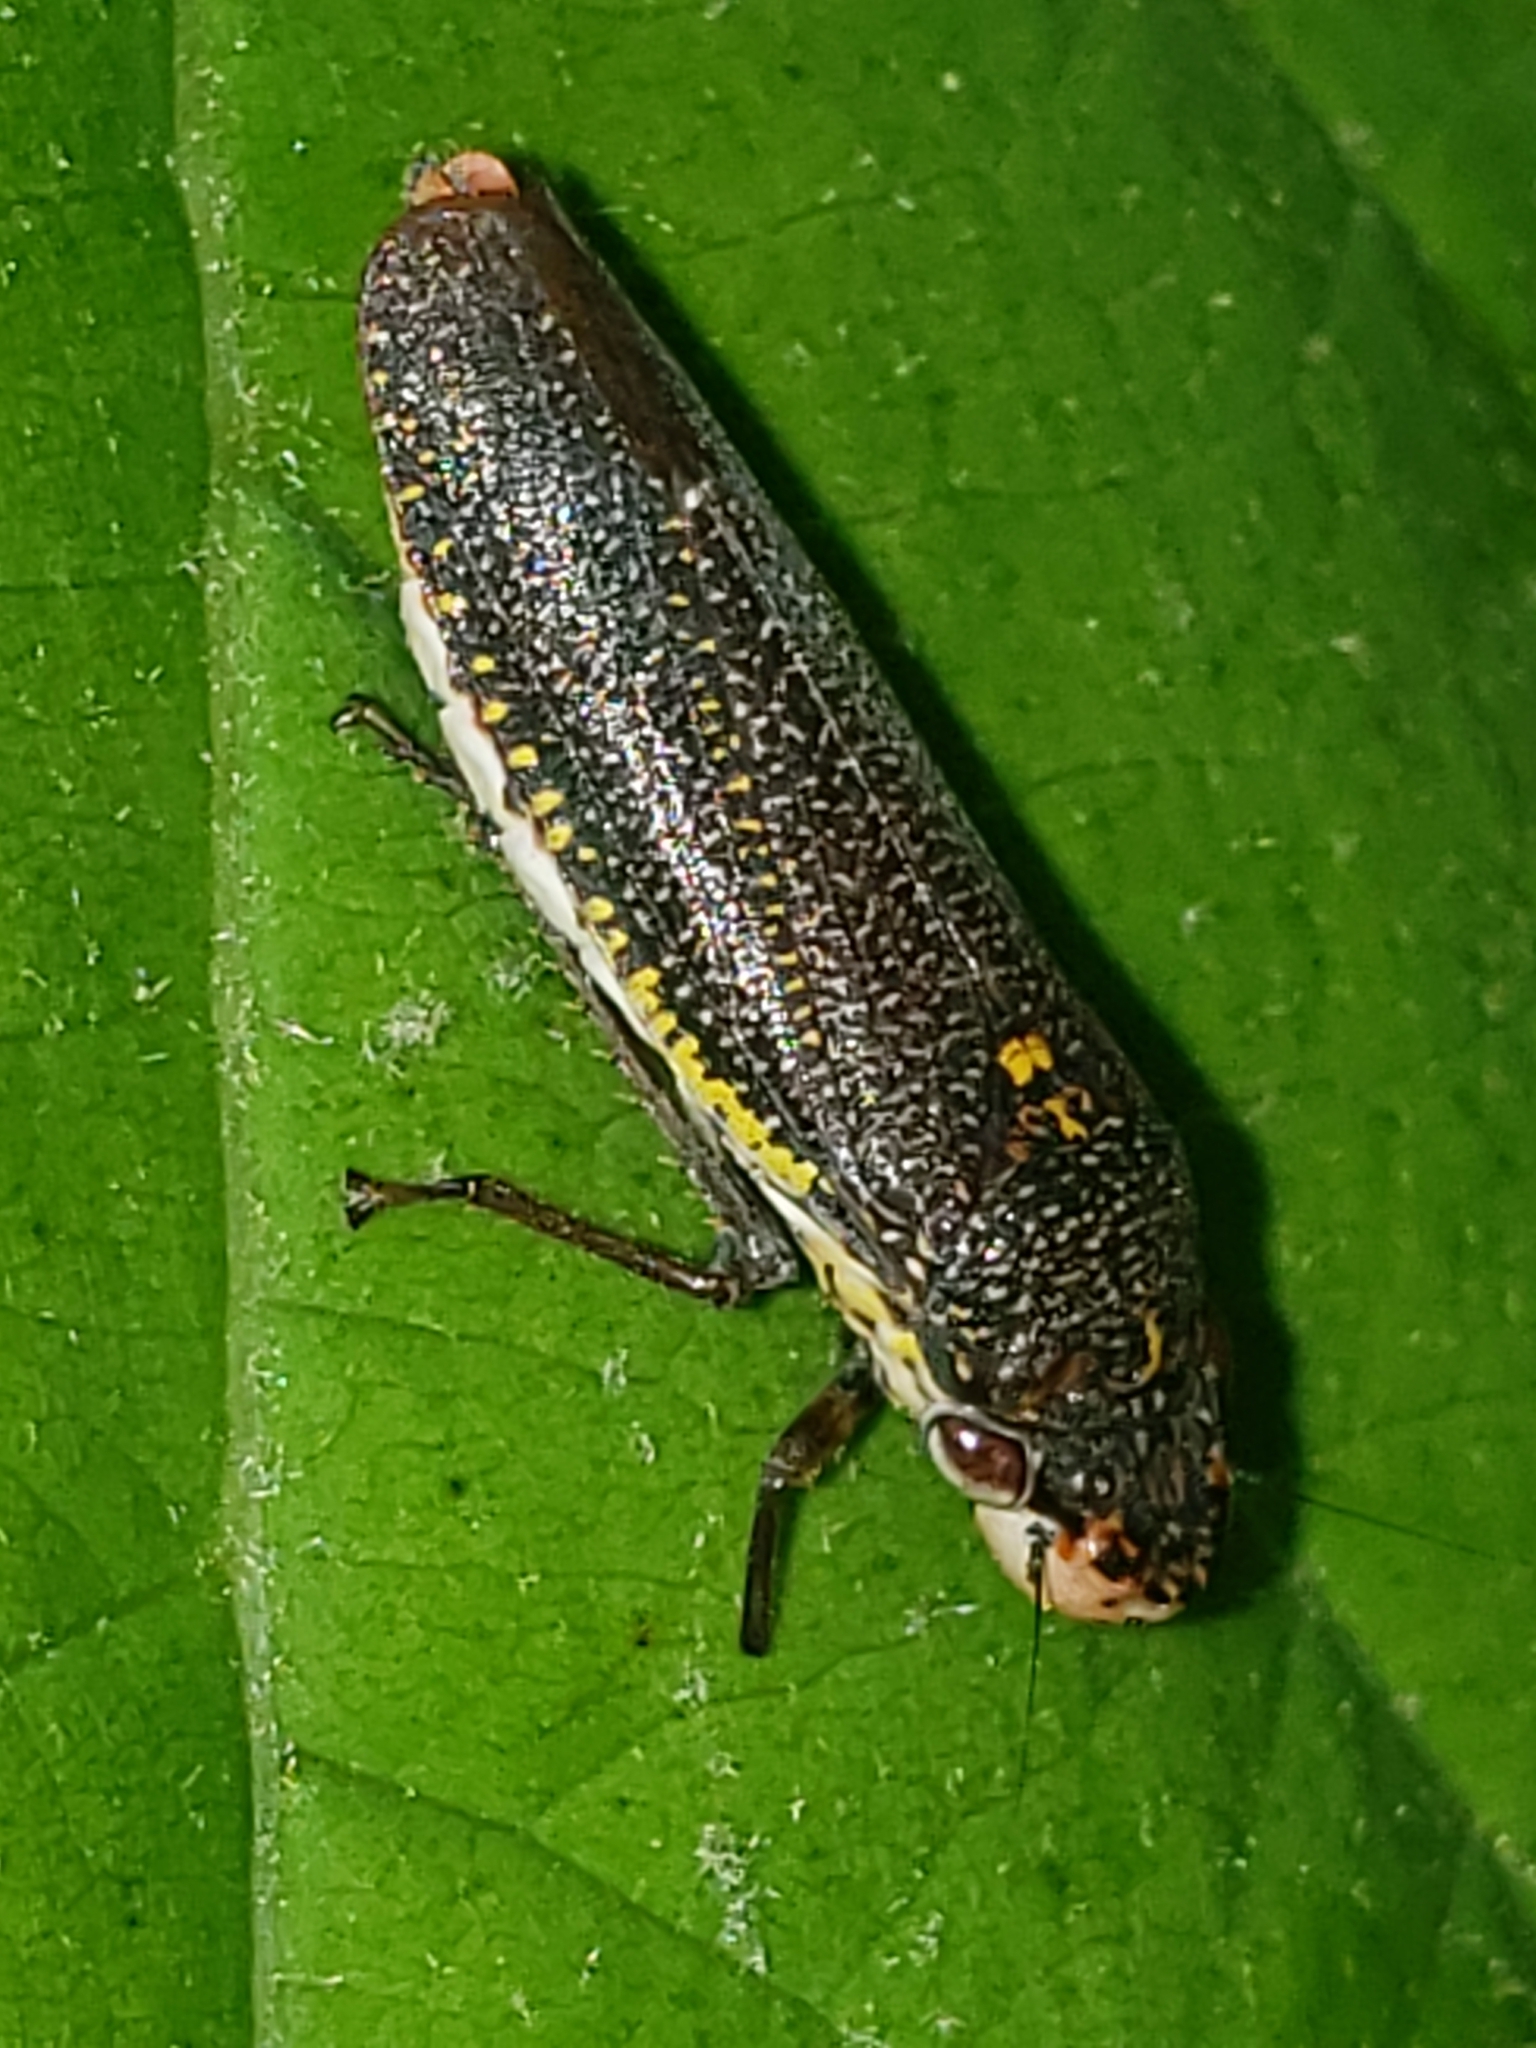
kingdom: Animalia
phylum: Arthropoda
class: Insecta
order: Hemiptera
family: Cicadellidae
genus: Paraulacizes
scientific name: Paraulacizes irrorata
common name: Speckled sharpshooter
